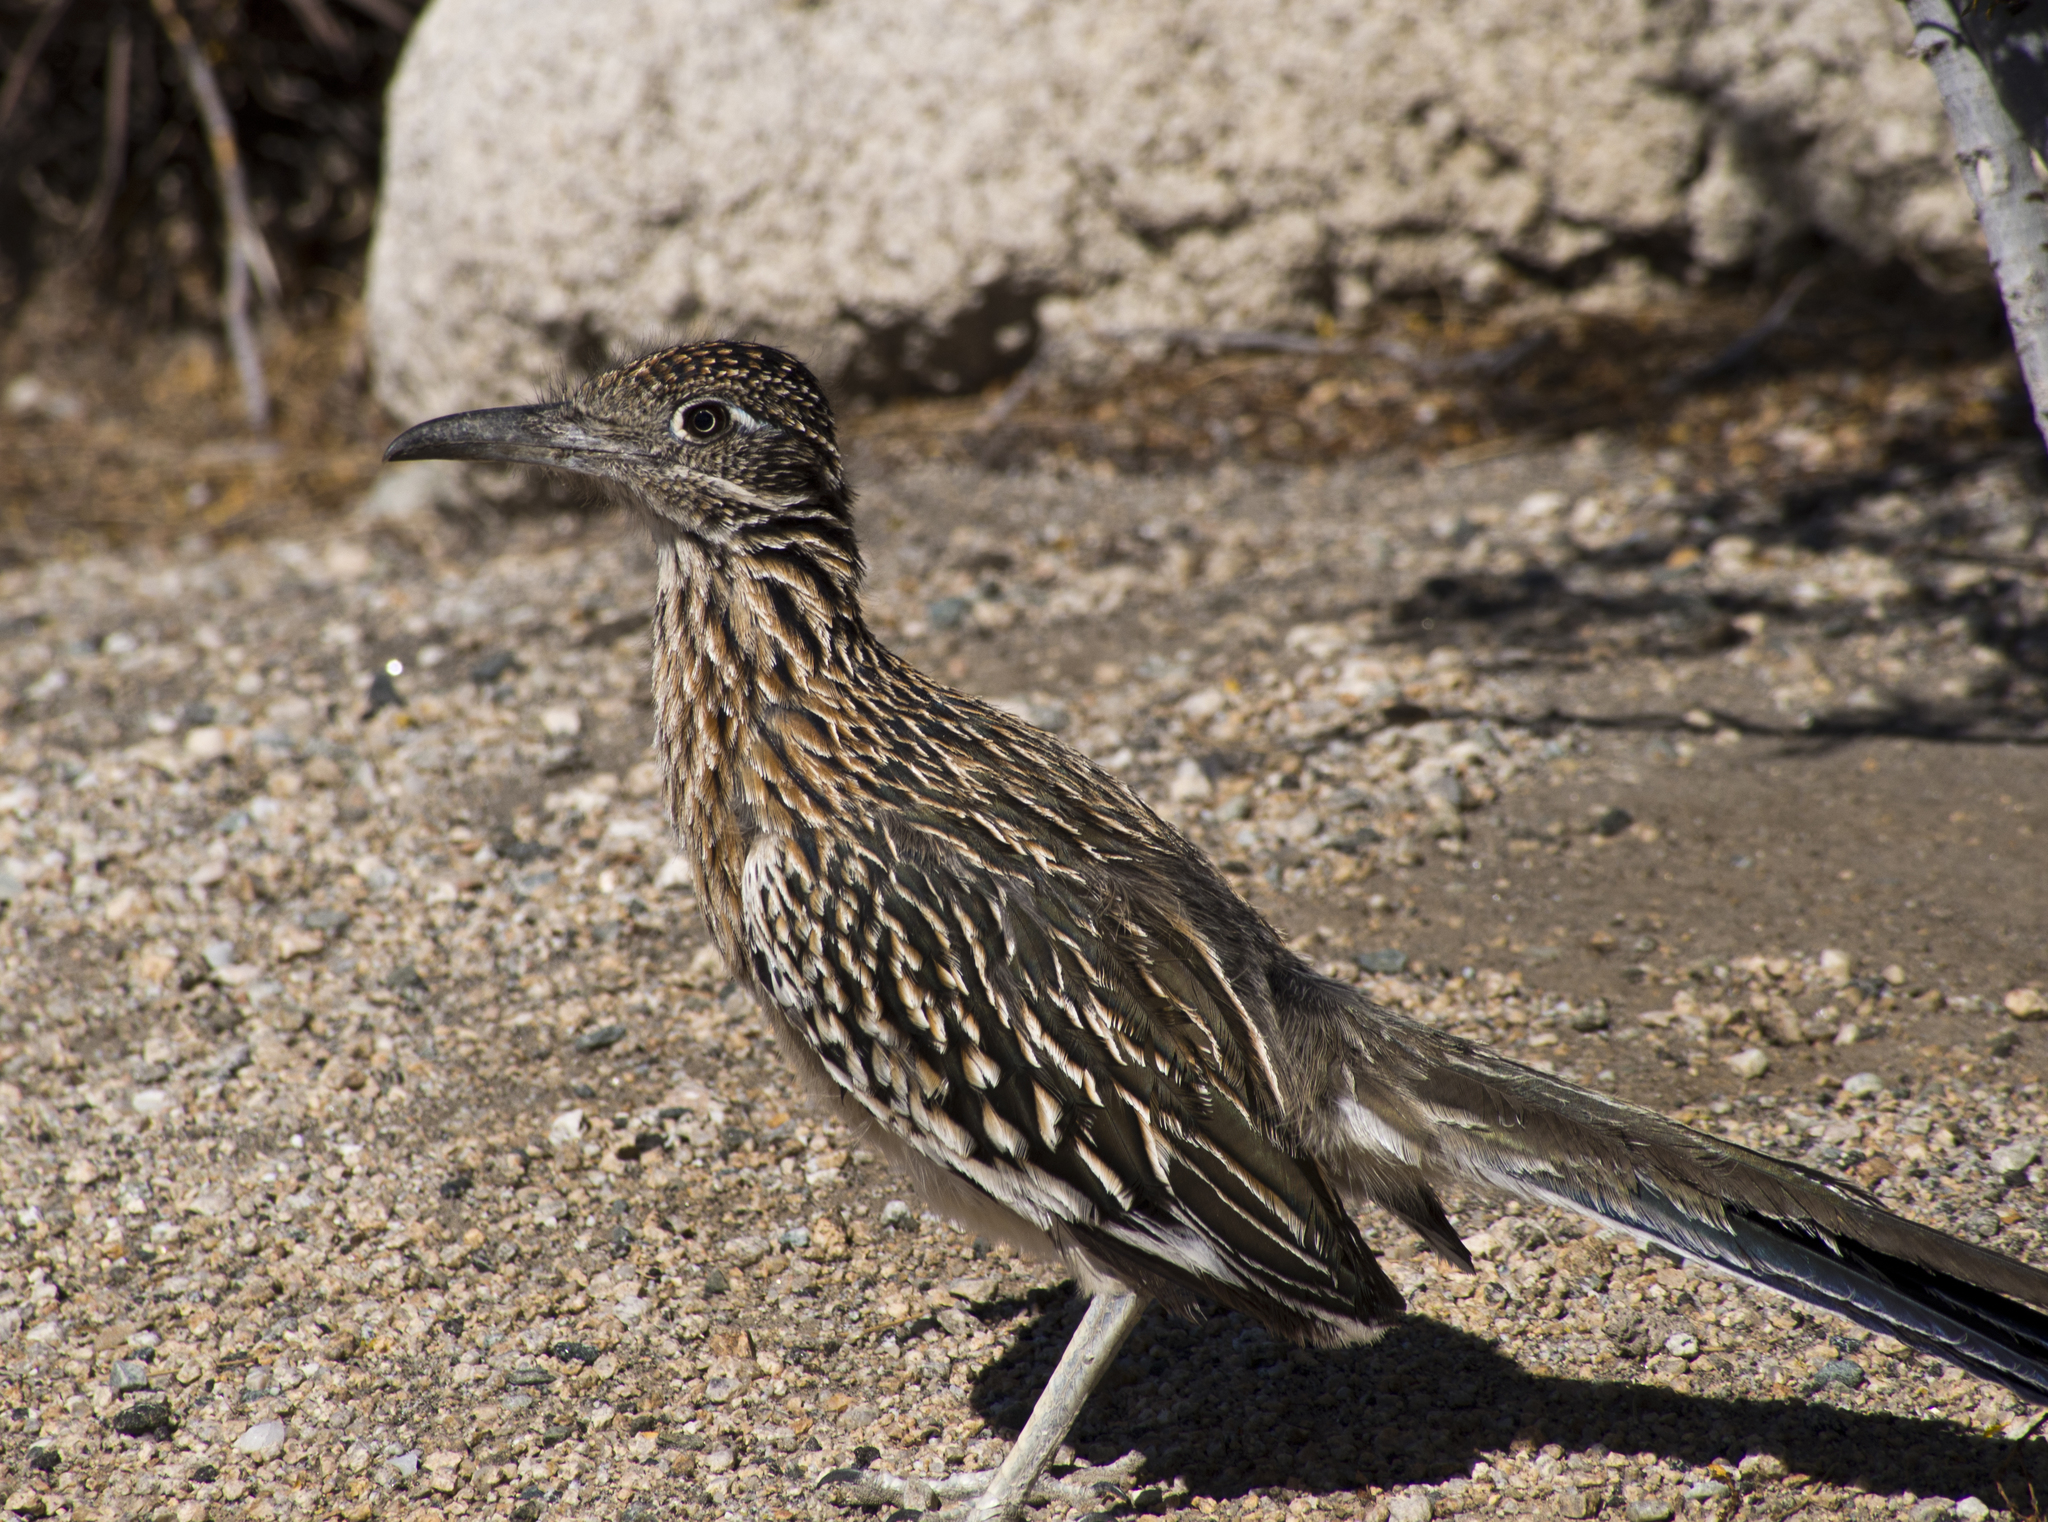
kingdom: Animalia
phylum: Chordata
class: Aves
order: Cuculiformes
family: Cuculidae
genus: Geococcyx
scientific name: Geococcyx californianus
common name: Greater roadrunner
